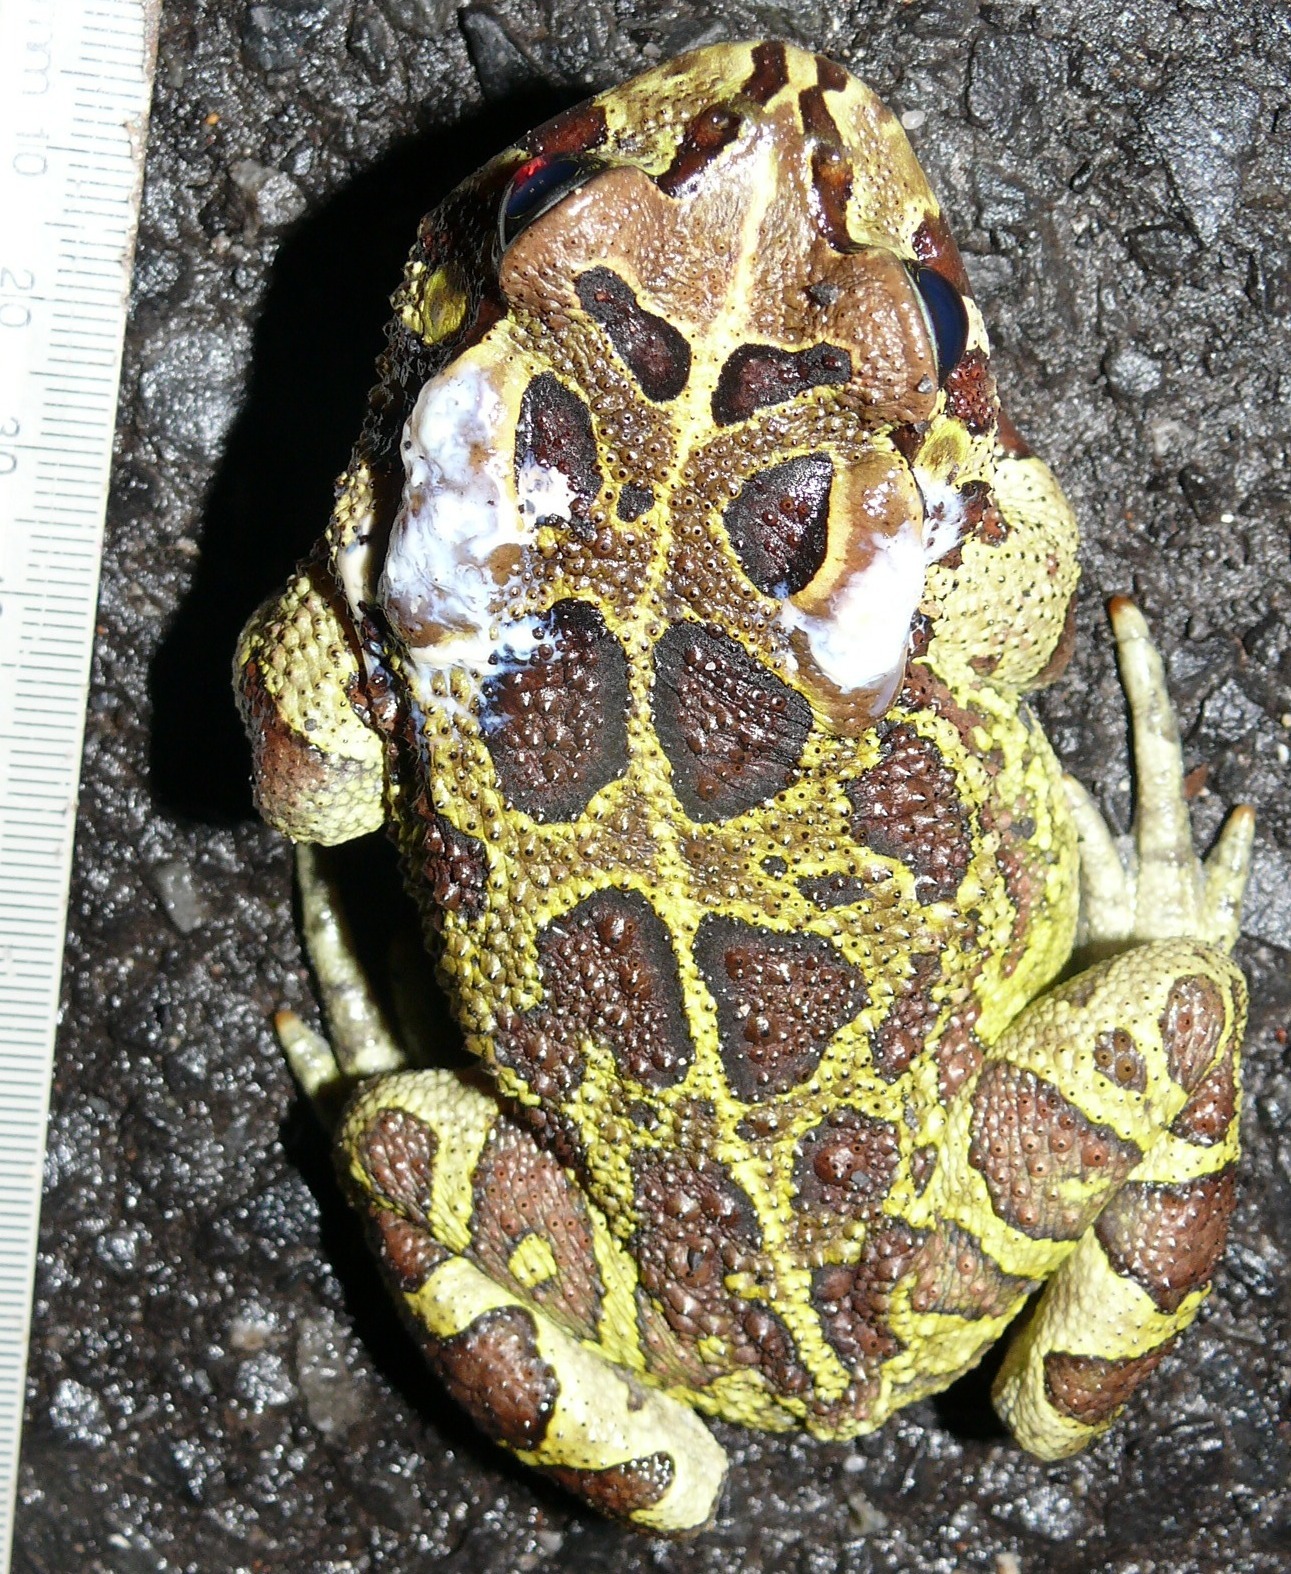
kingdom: Animalia
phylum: Chordata
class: Amphibia
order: Anura
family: Bufonidae
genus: Sclerophrys
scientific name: Sclerophrys pantherina
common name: Panther toad
